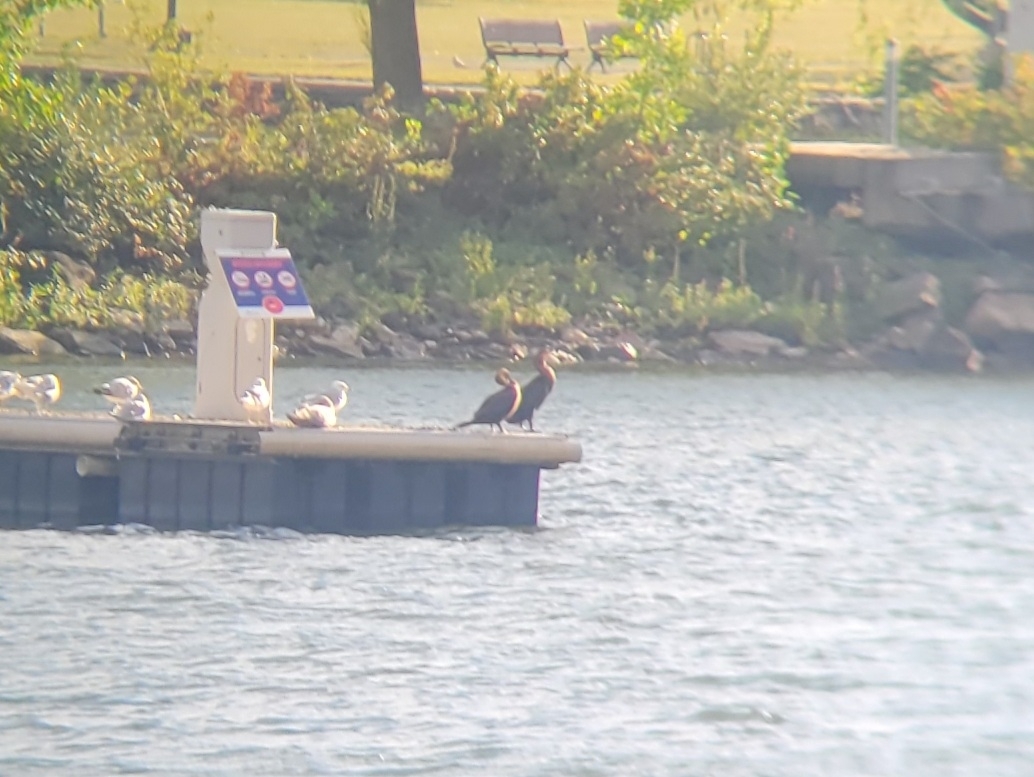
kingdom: Animalia
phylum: Chordata
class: Aves
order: Suliformes
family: Phalacrocoracidae
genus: Phalacrocorax
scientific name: Phalacrocorax auritus
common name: Double-crested cormorant
